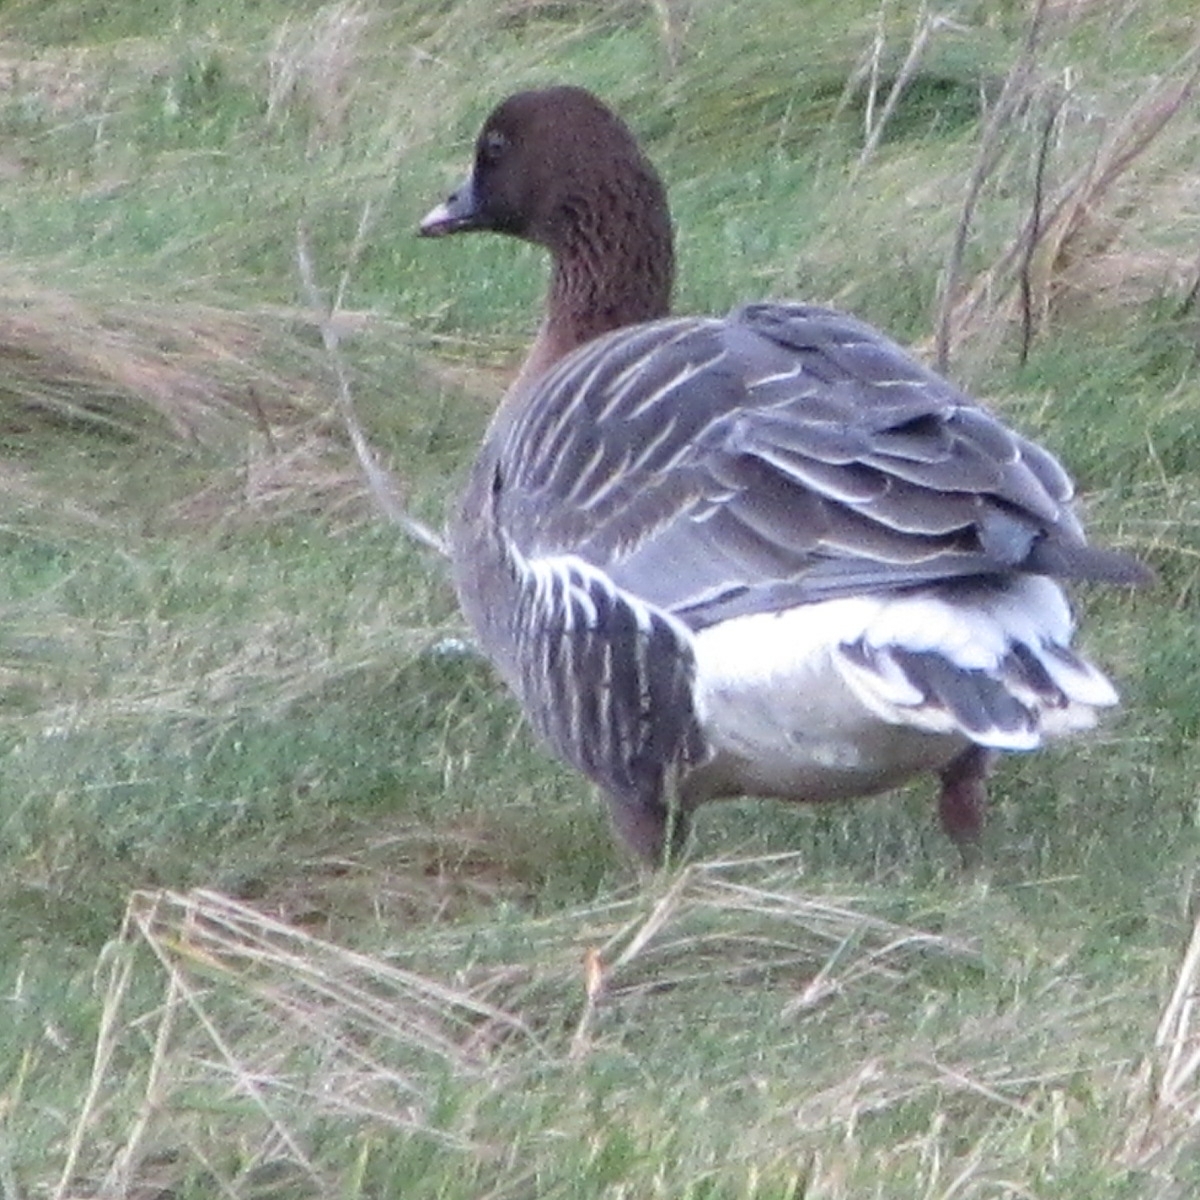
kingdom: Animalia
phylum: Chordata
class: Aves
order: Anseriformes
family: Anatidae
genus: Anser
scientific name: Anser brachyrhynchus
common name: Pink-footed goose
